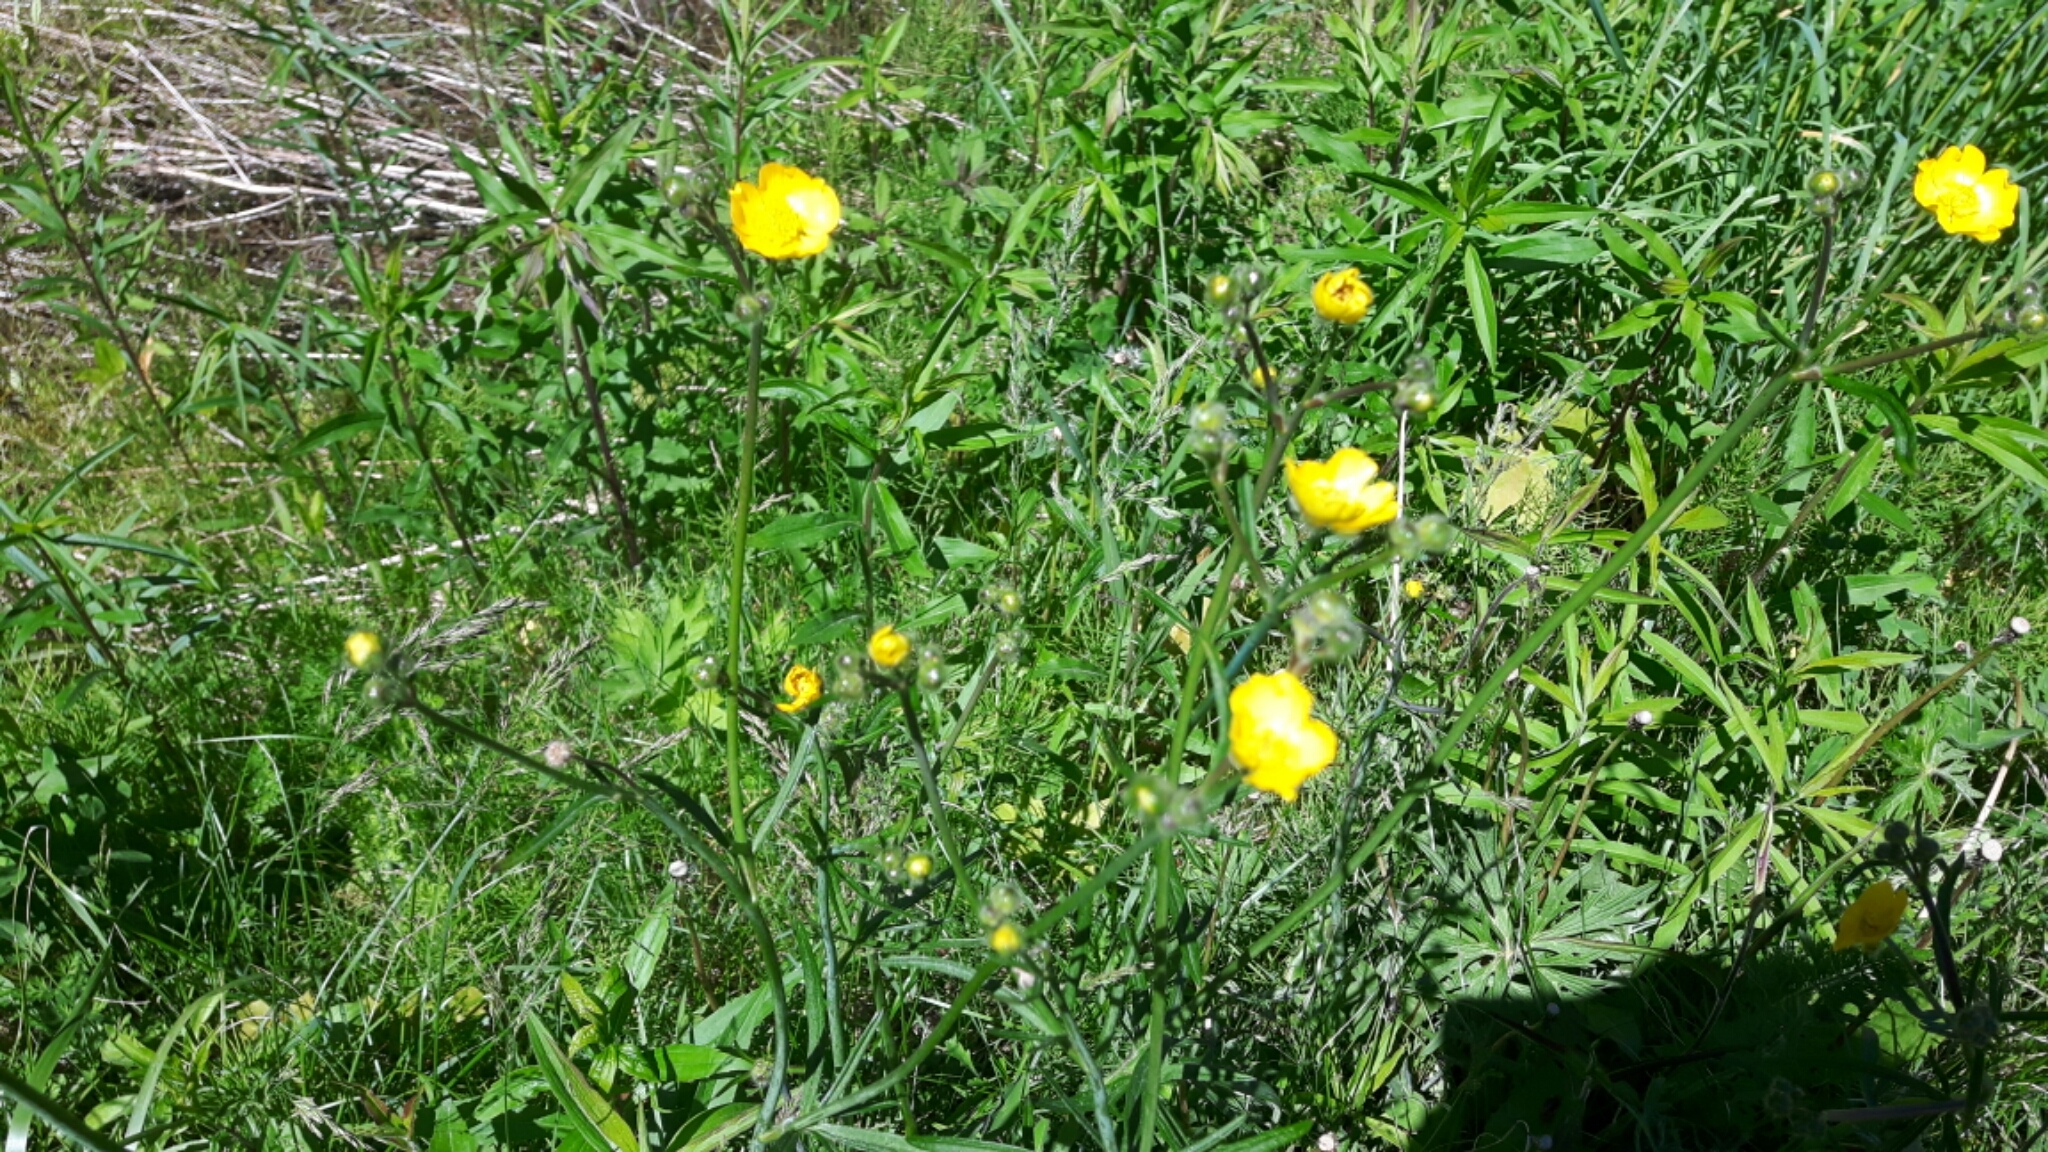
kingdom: Plantae
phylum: Tracheophyta
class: Magnoliopsida
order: Ranunculales
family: Ranunculaceae
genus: Ranunculus
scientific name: Ranunculus acris
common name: Meadow buttercup
